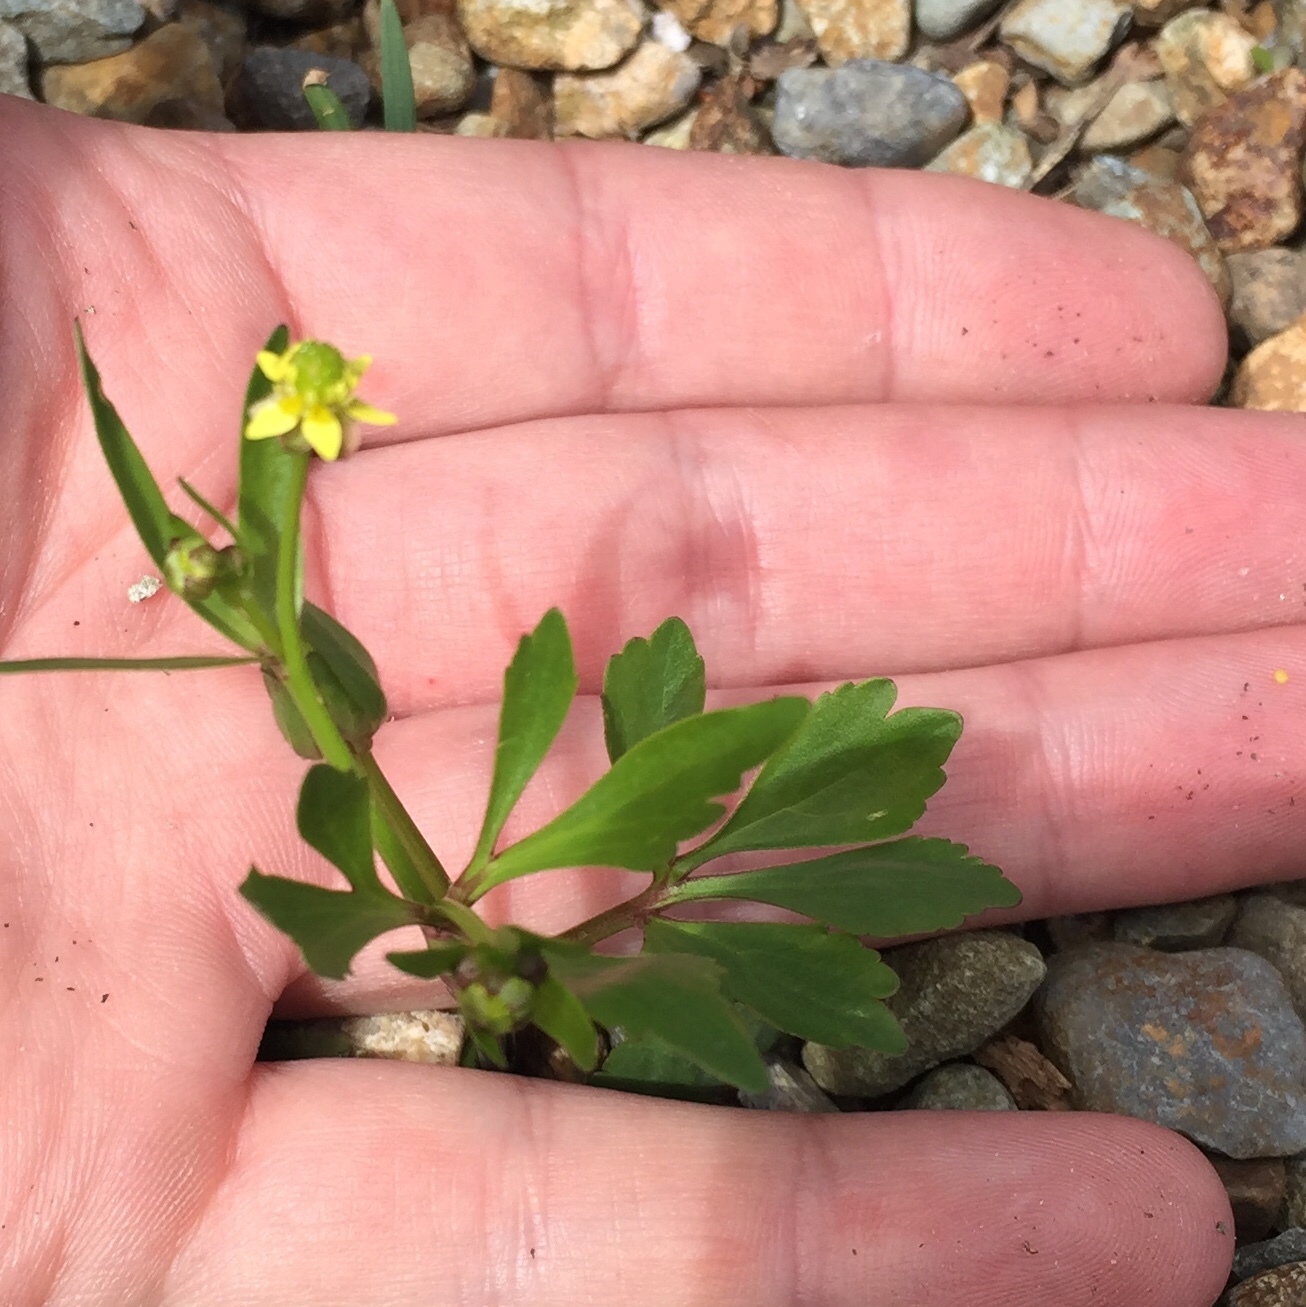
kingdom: Plantae
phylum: Tracheophyta
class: Magnoliopsida
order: Ranunculales
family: Ranunculaceae
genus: Ranunculus
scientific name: Ranunculus abortivus
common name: Early wood buttercup
